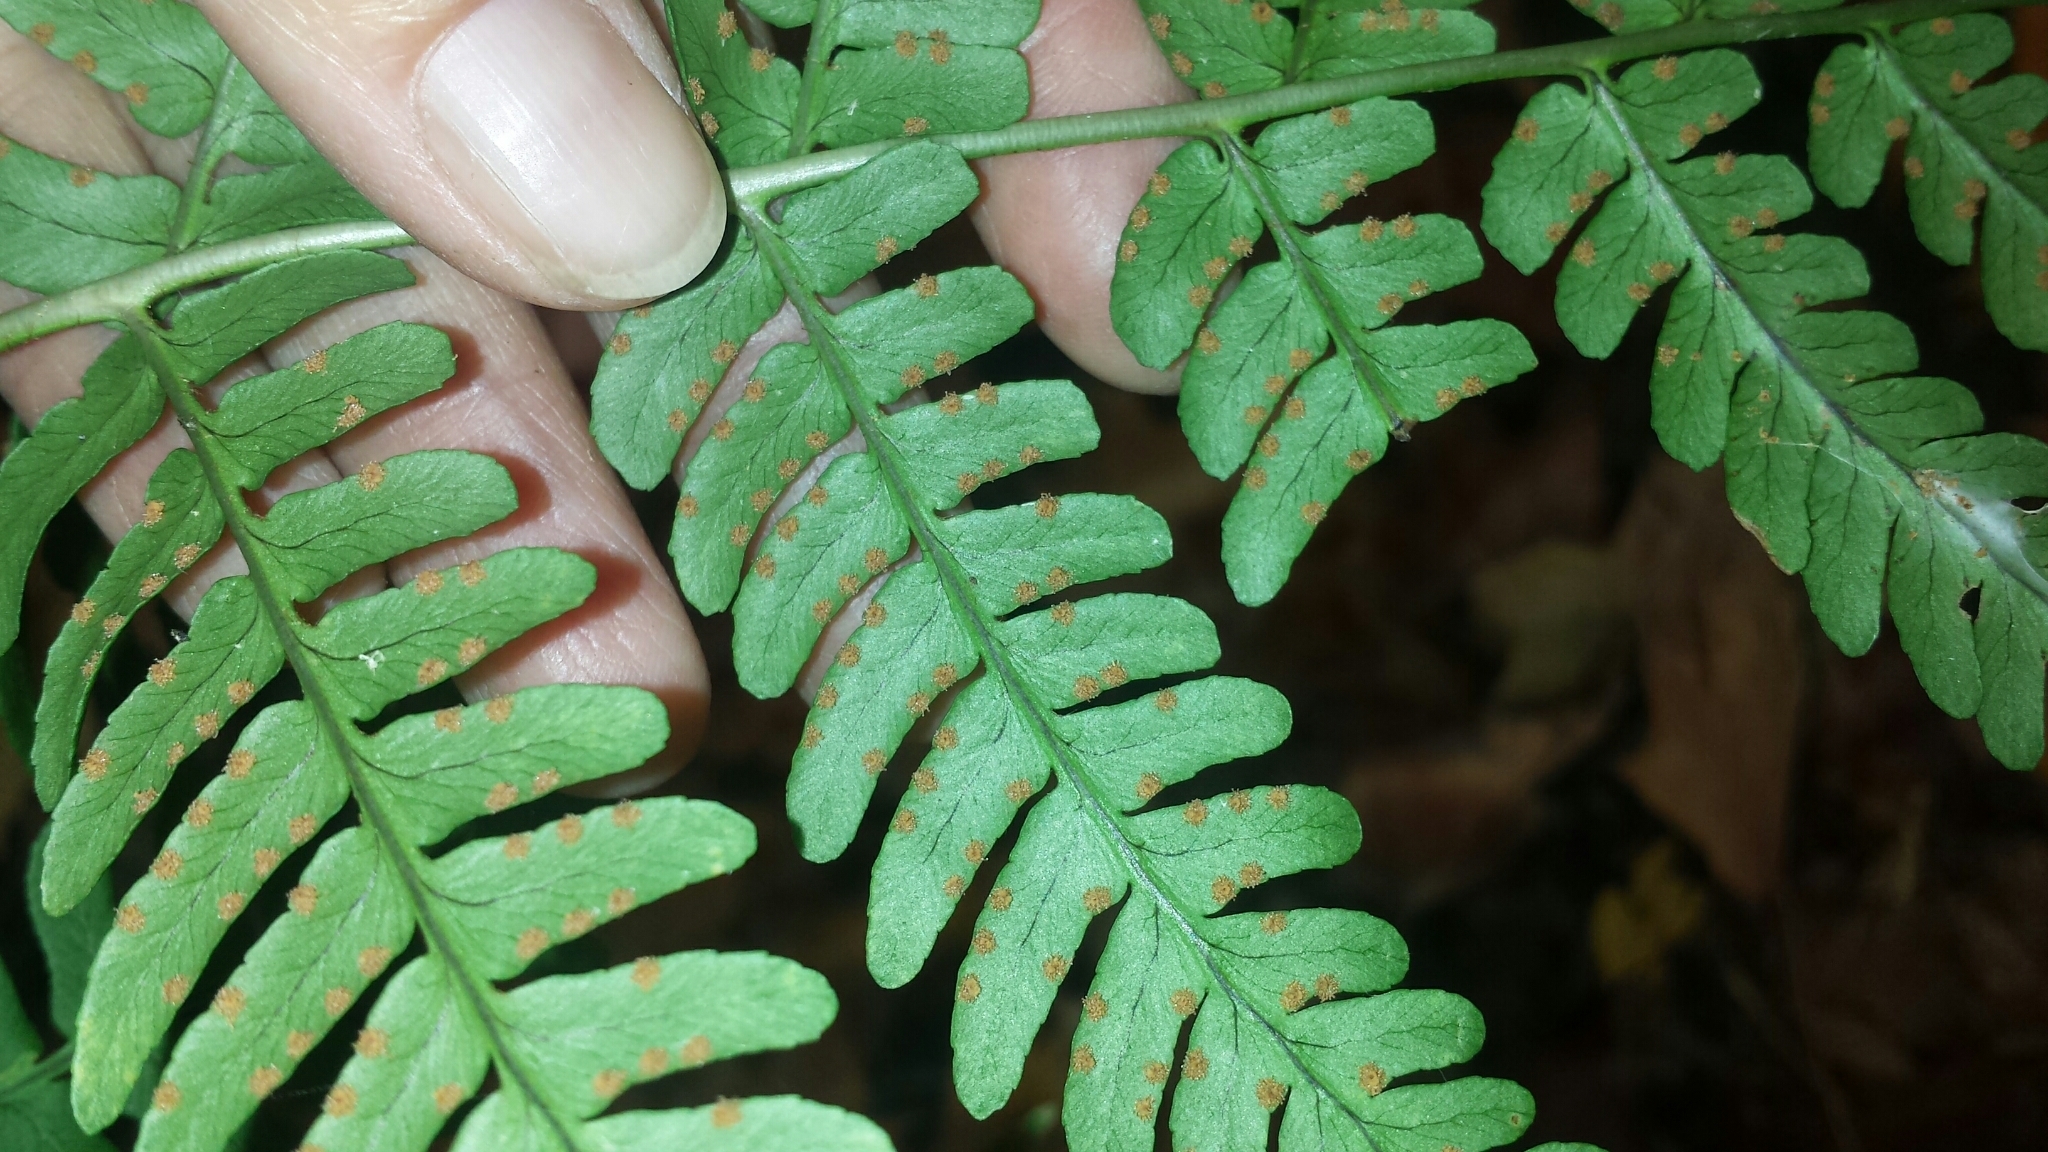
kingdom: Plantae
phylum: Tracheophyta
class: Polypodiopsida
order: Polypodiales
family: Dryopteridaceae
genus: Dryopteris
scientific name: Dryopteris marginalis
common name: Marginal wood fern
